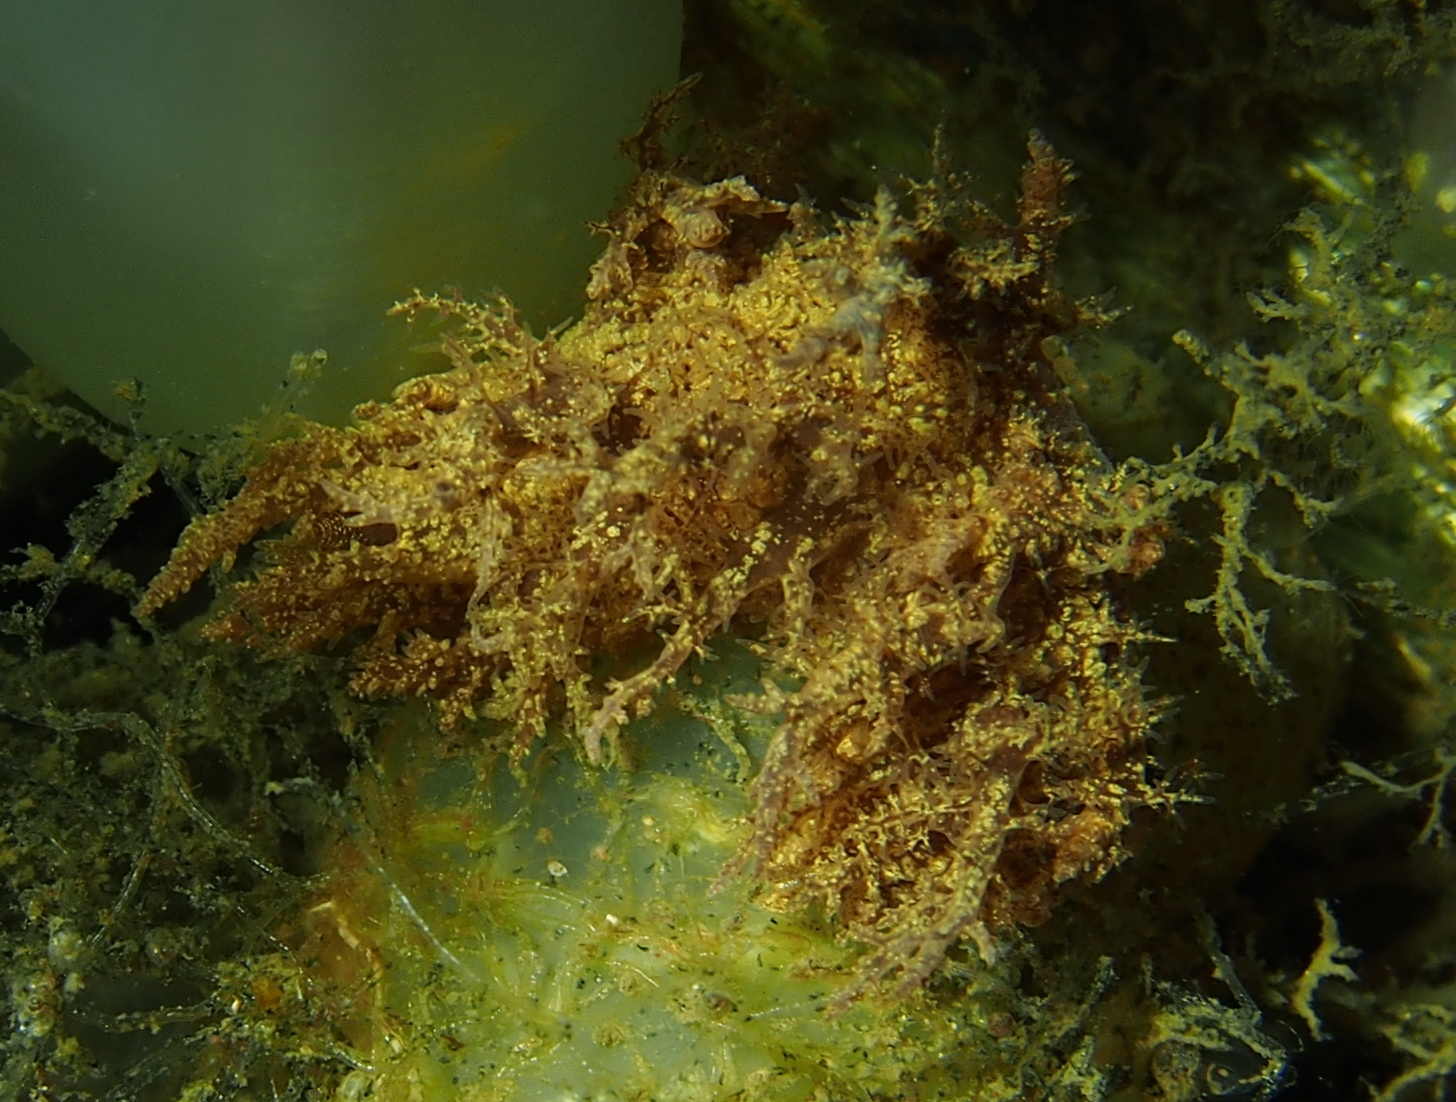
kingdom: Animalia
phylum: Mollusca
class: Gastropoda
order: Nudibranchia
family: Dendronotidae
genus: Dendronotus
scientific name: Dendronotus lacteus
